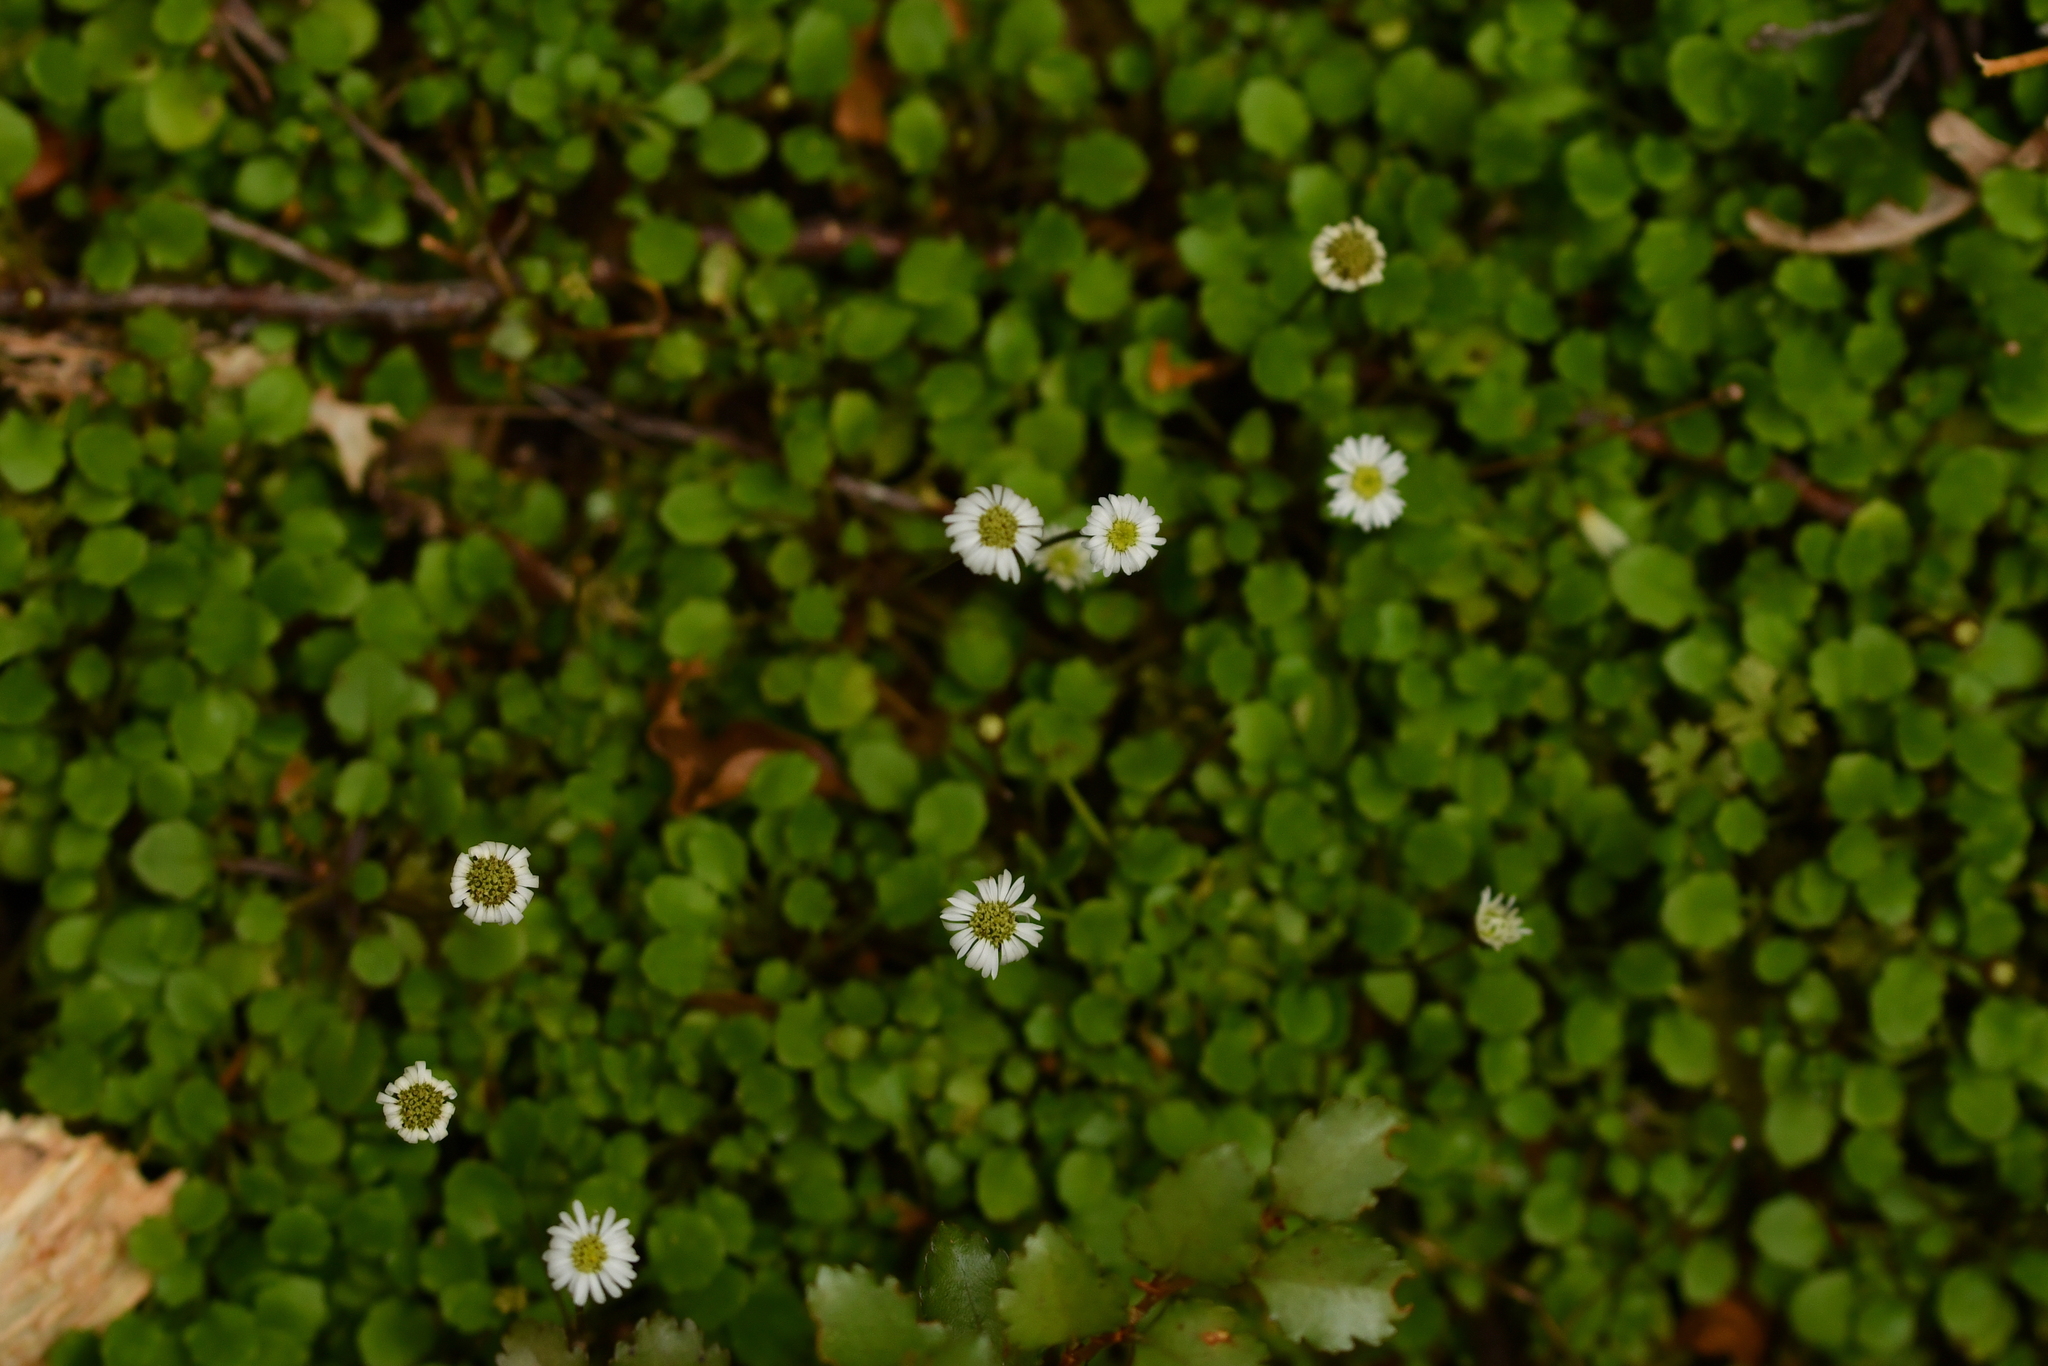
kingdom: Plantae
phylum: Tracheophyta
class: Magnoliopsida
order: Asterales
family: Asteraceae
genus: Lagenophora
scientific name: Lagenophora strangulata
